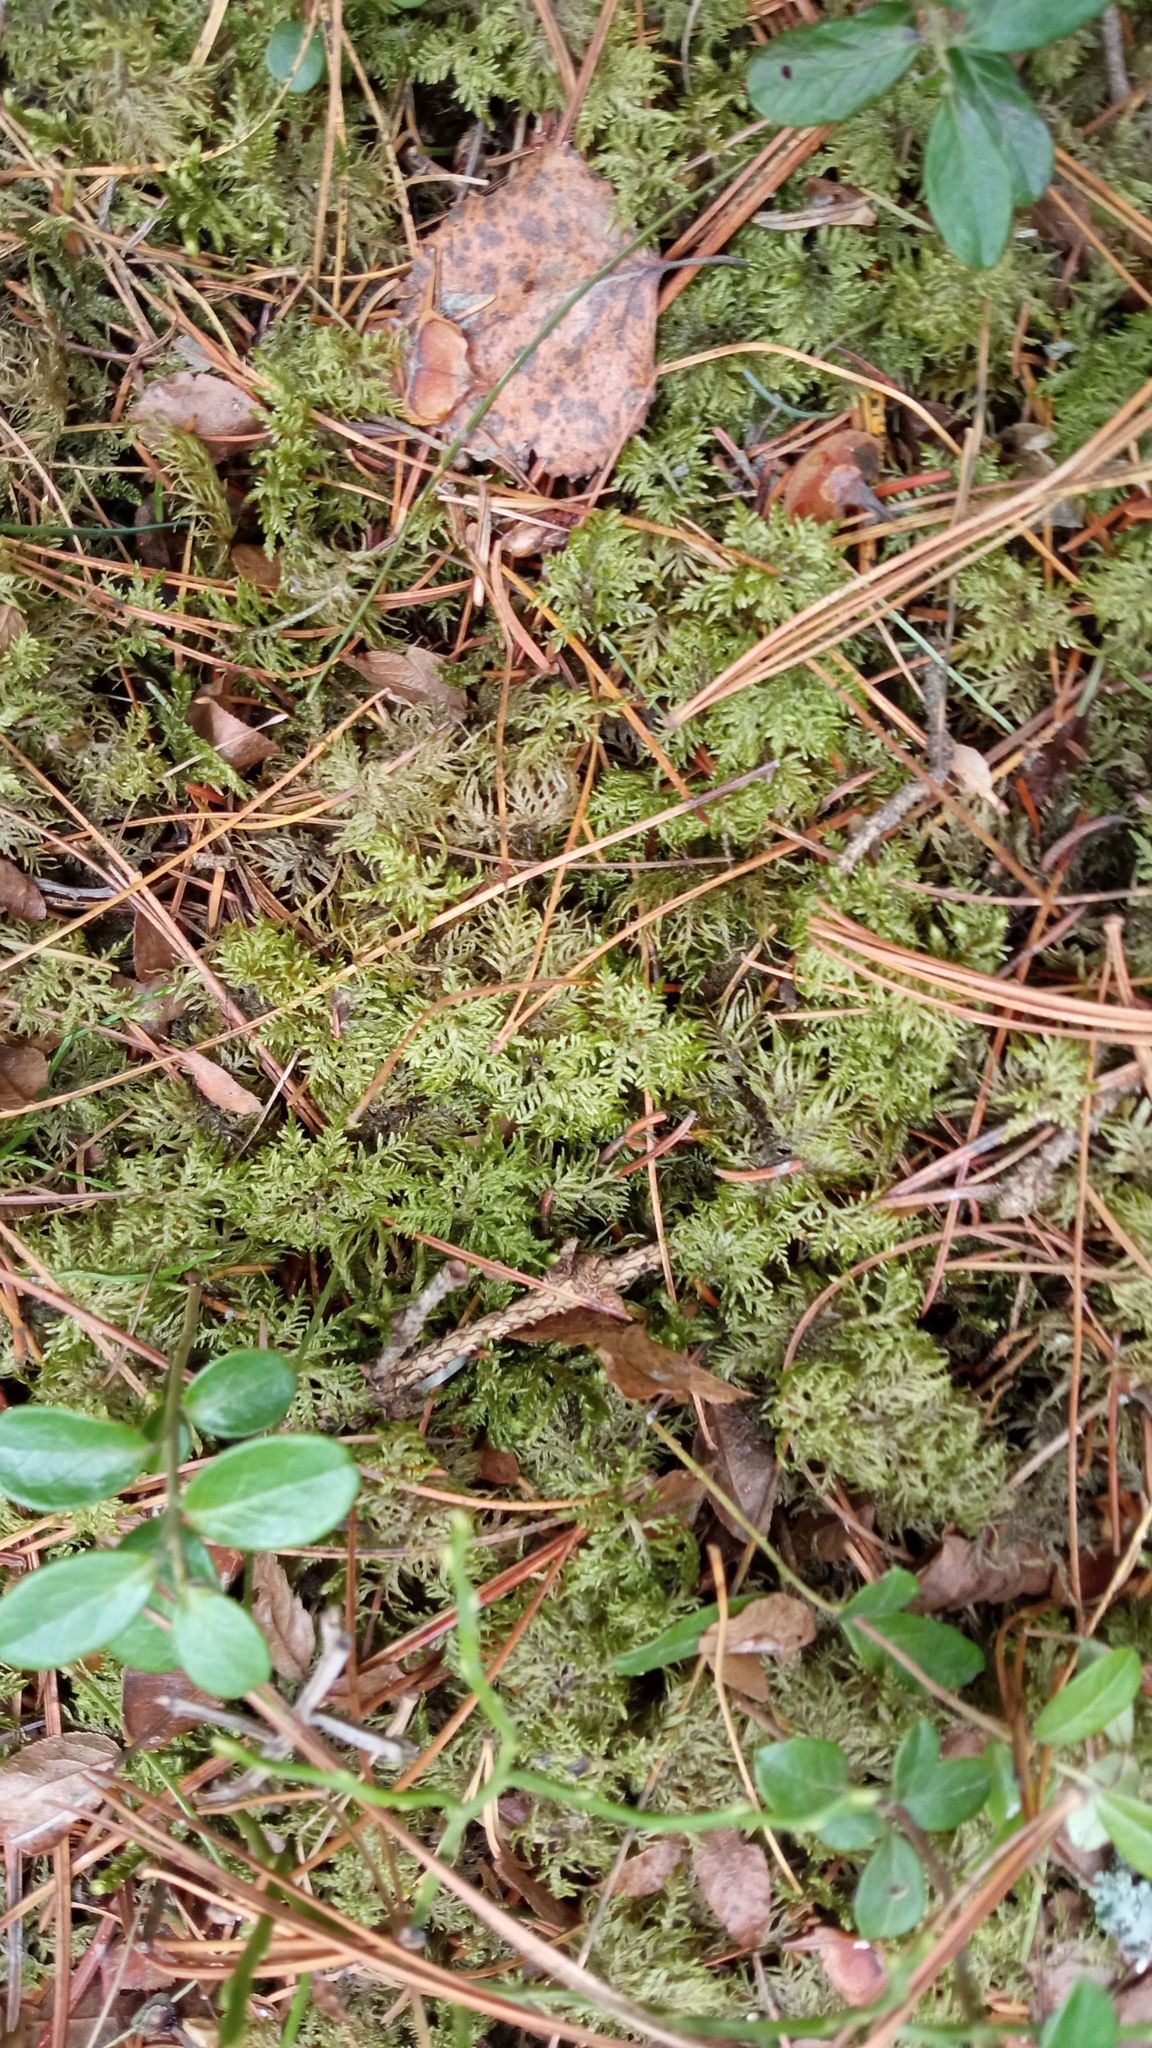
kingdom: Plantae
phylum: Bryophyta
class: Bryopsida
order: Hypnales
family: Hylocomiaceae
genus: Hylocomium
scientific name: Hylocomium splendens
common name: Stairstep moss
